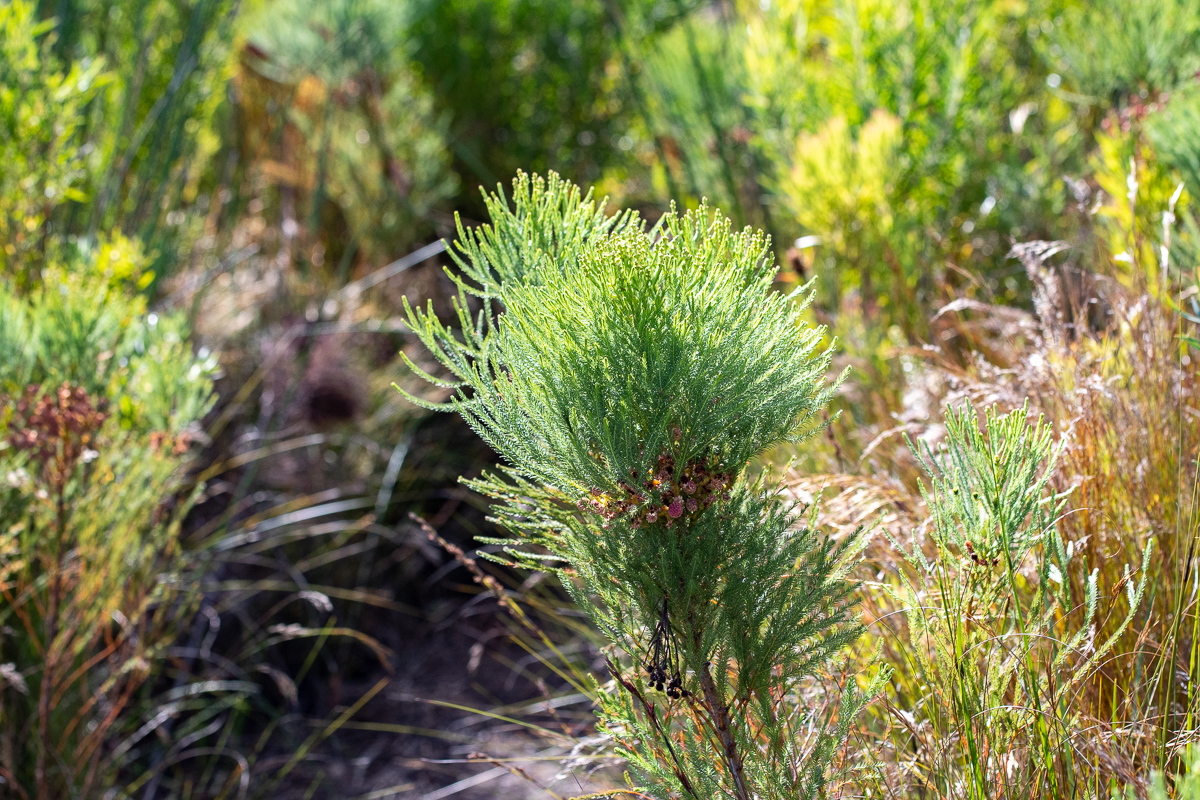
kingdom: Plantae
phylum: Tracheophyta
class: Magnoliopsida
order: Bruniales
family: Bruniaceae
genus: Berzelia
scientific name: Berzelia lanuginosa
